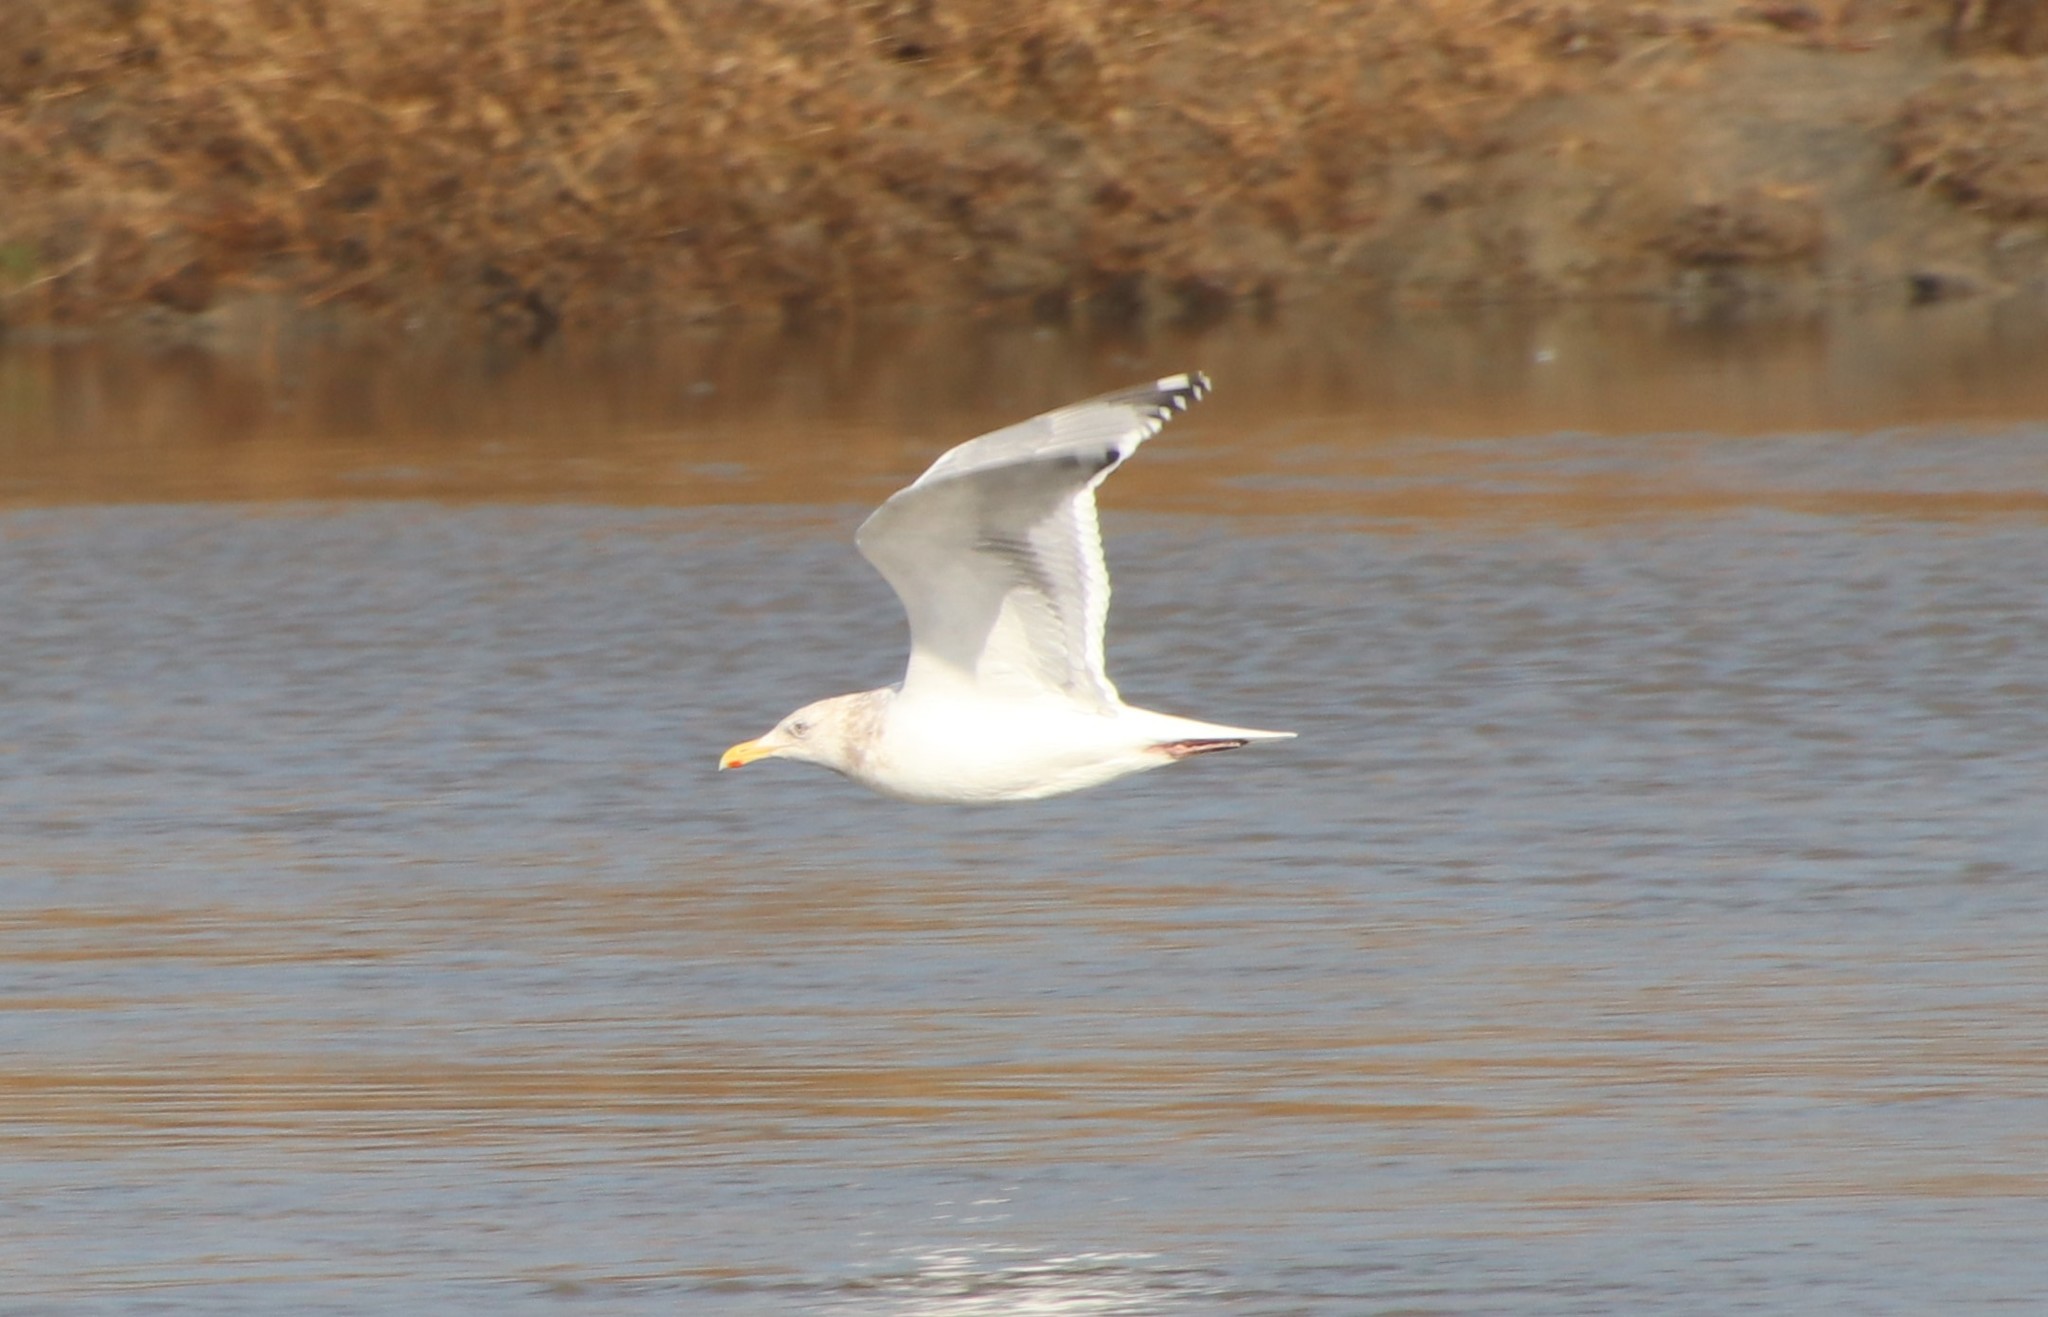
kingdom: Animalia
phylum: Chordata
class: Aves
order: Charadriiformes
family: Laridae
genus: Larus
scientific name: Larus argentatus
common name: Herring gull
